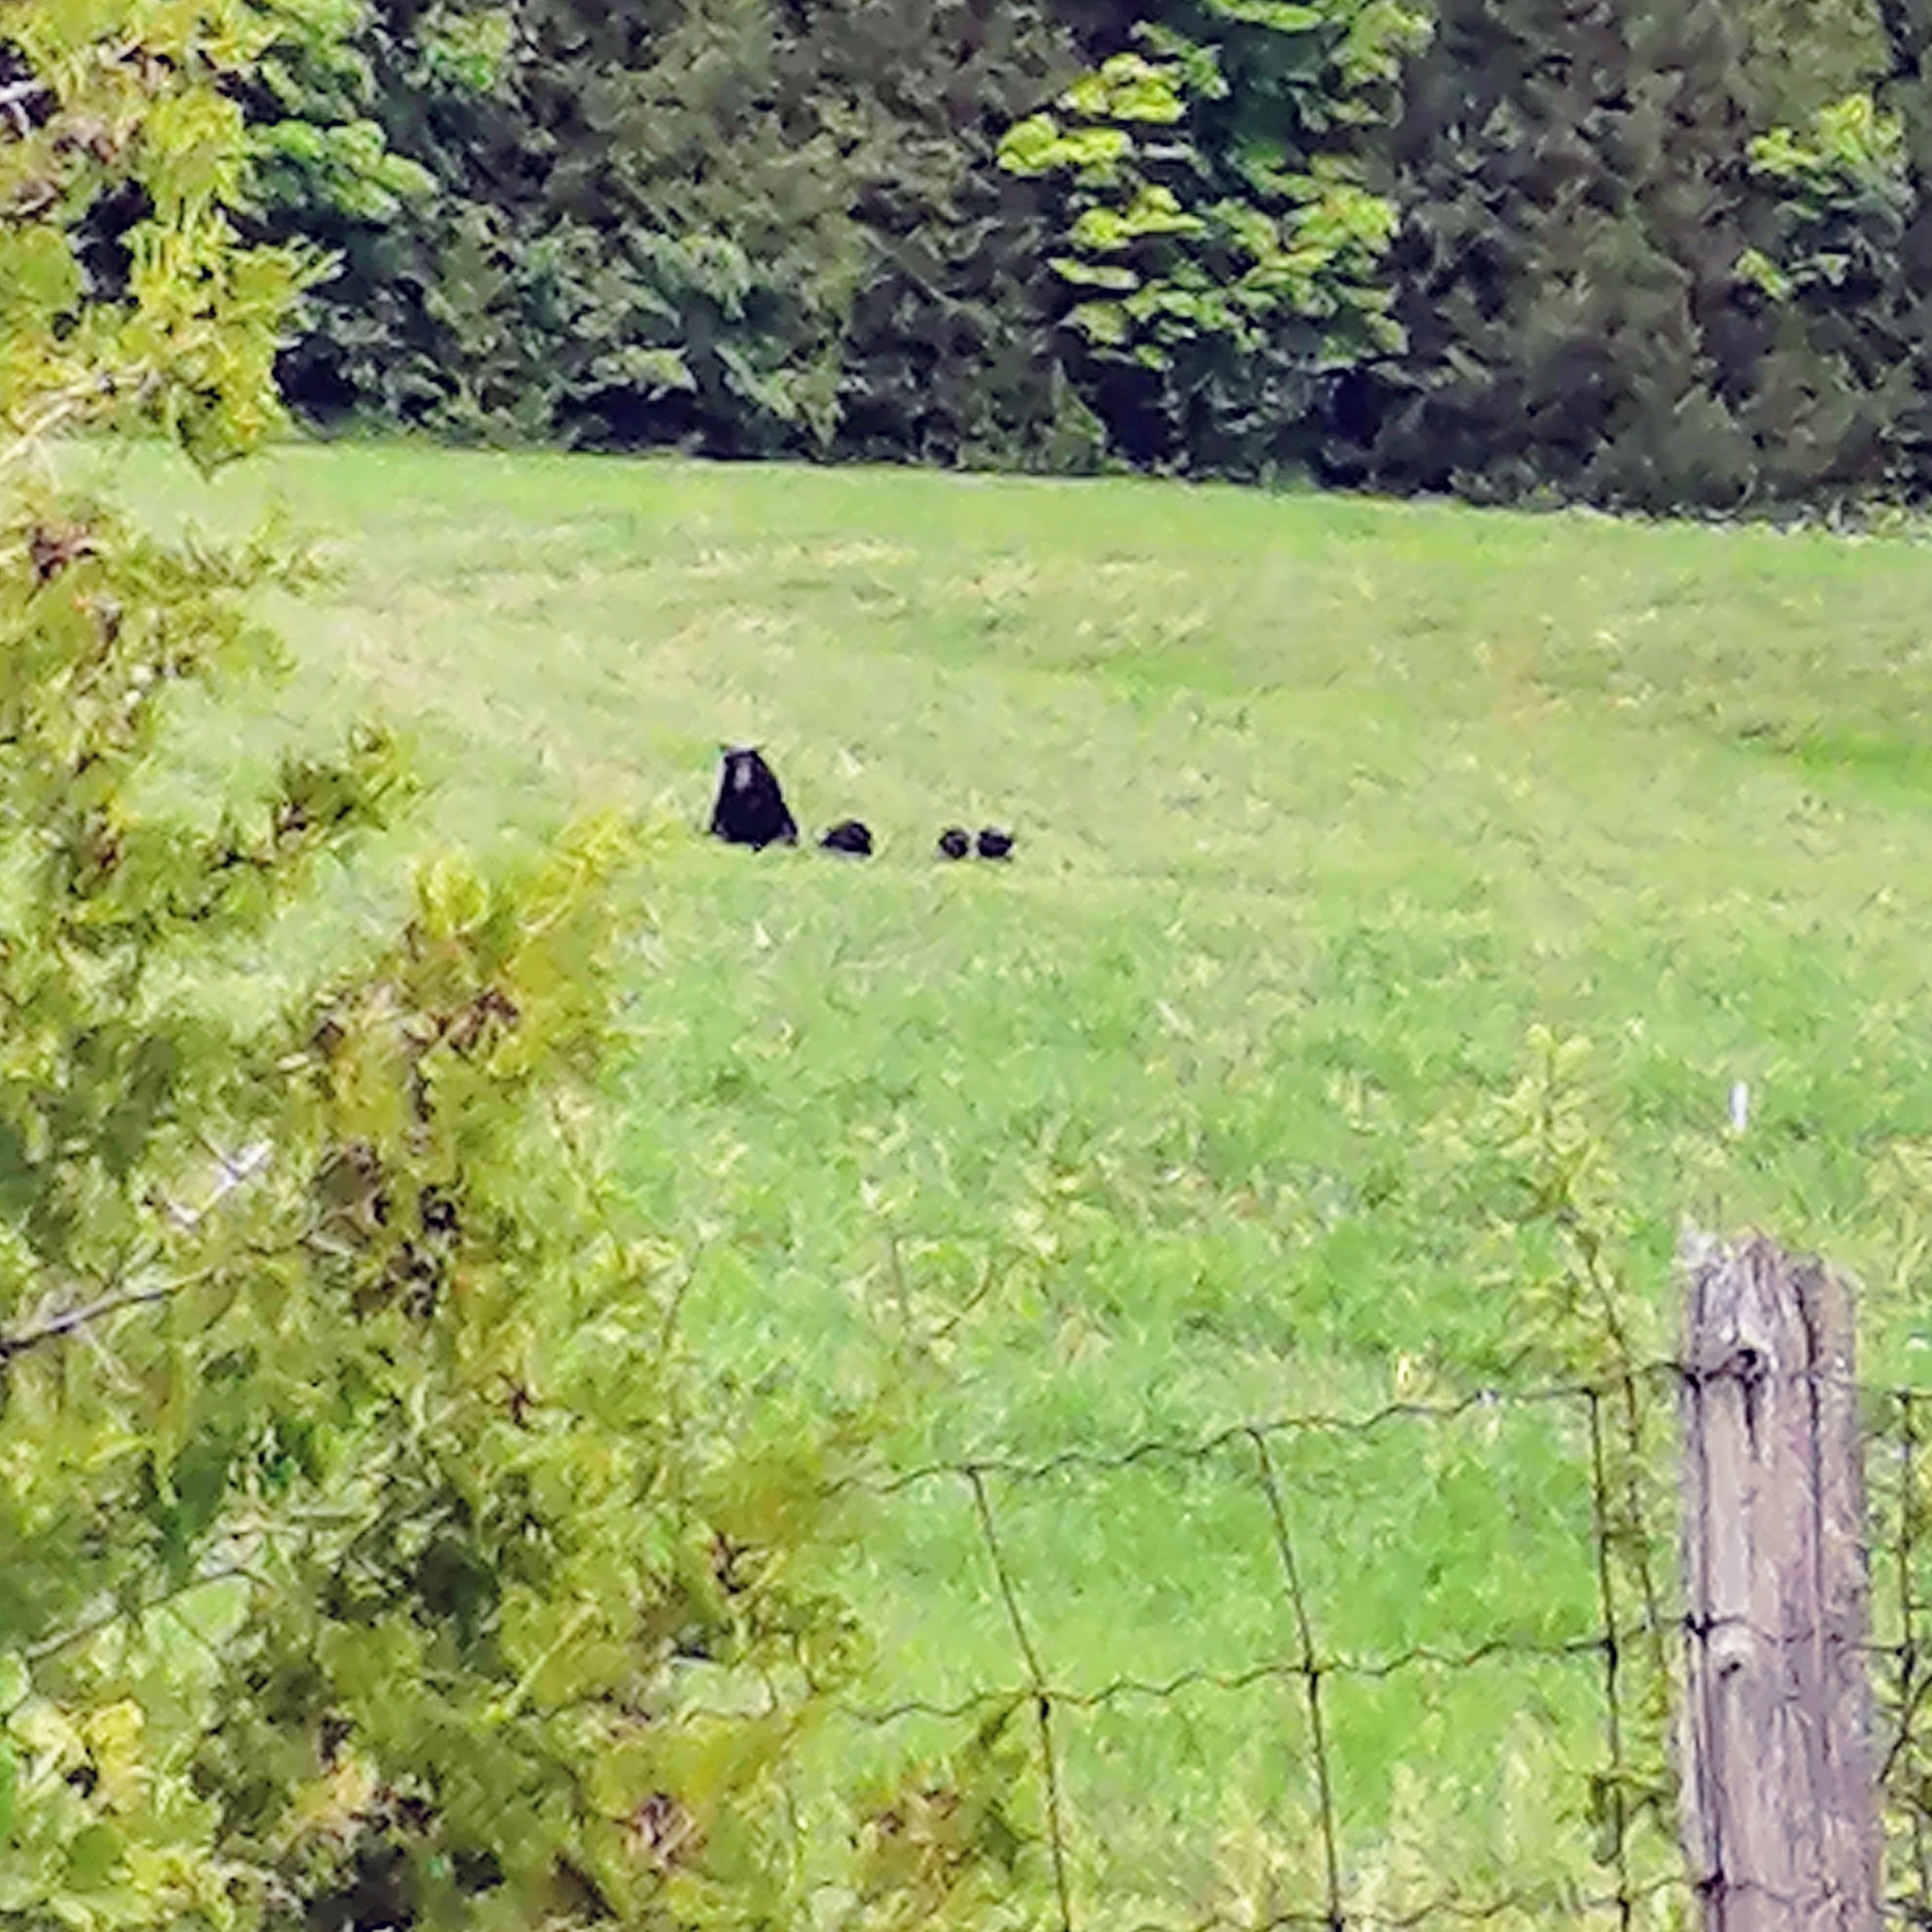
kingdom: Animalia
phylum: Chordata
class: Mammalia
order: Carnivora
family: Ursidae
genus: Ursus
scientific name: Ursus americanus
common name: American black bear
